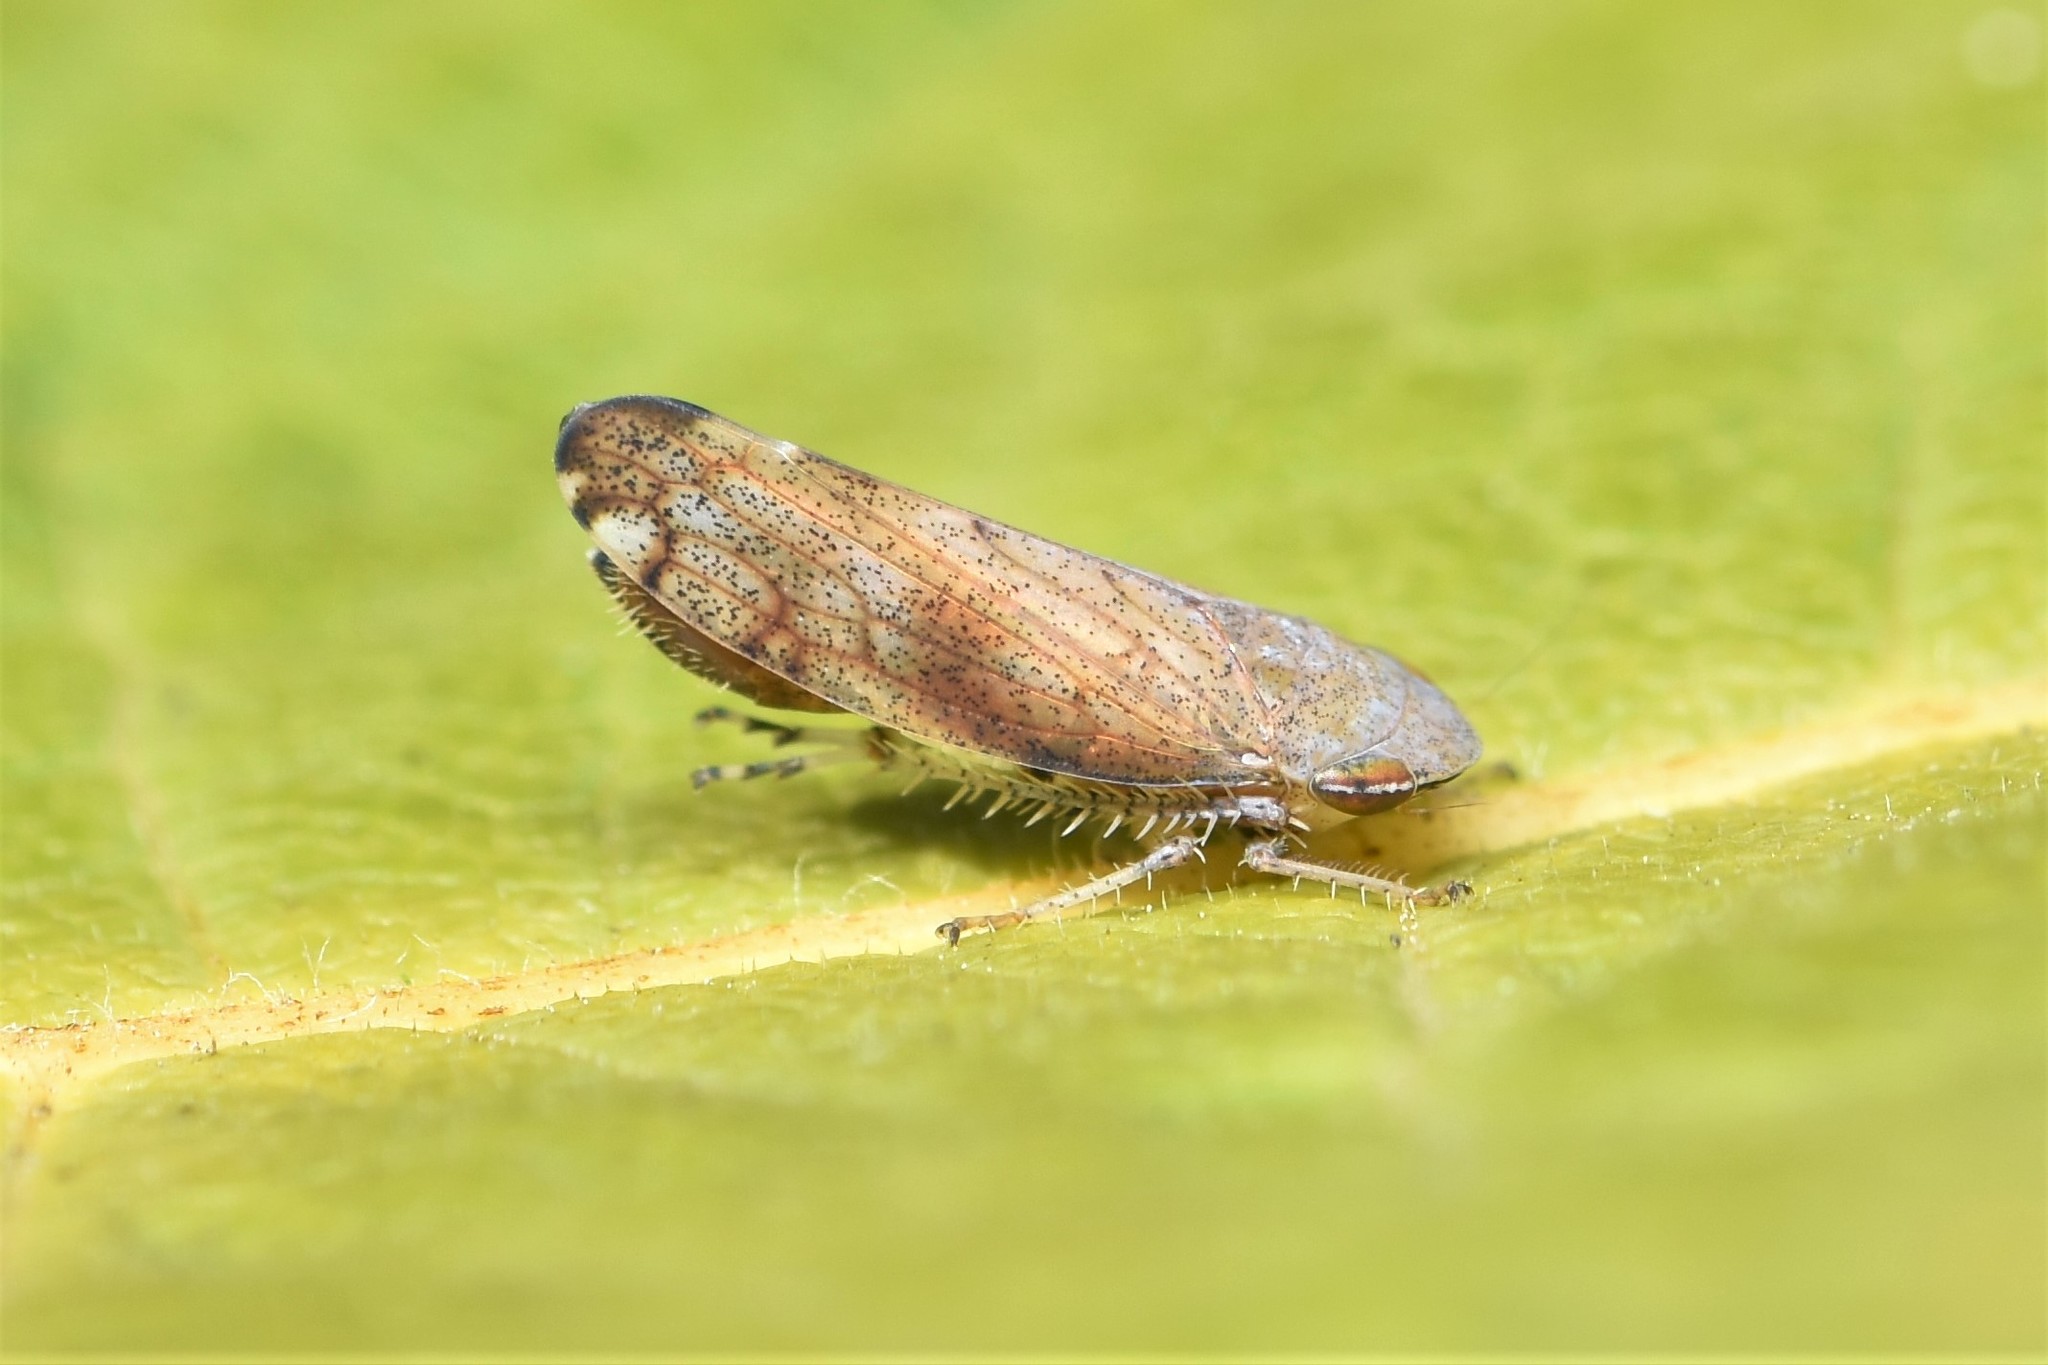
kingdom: Animalia
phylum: Arthropoda
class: Insecta
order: Hemiptera
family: Cicadellidae
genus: Fieberiella
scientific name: Fieberiella florii
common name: Flor’s leafhopper
